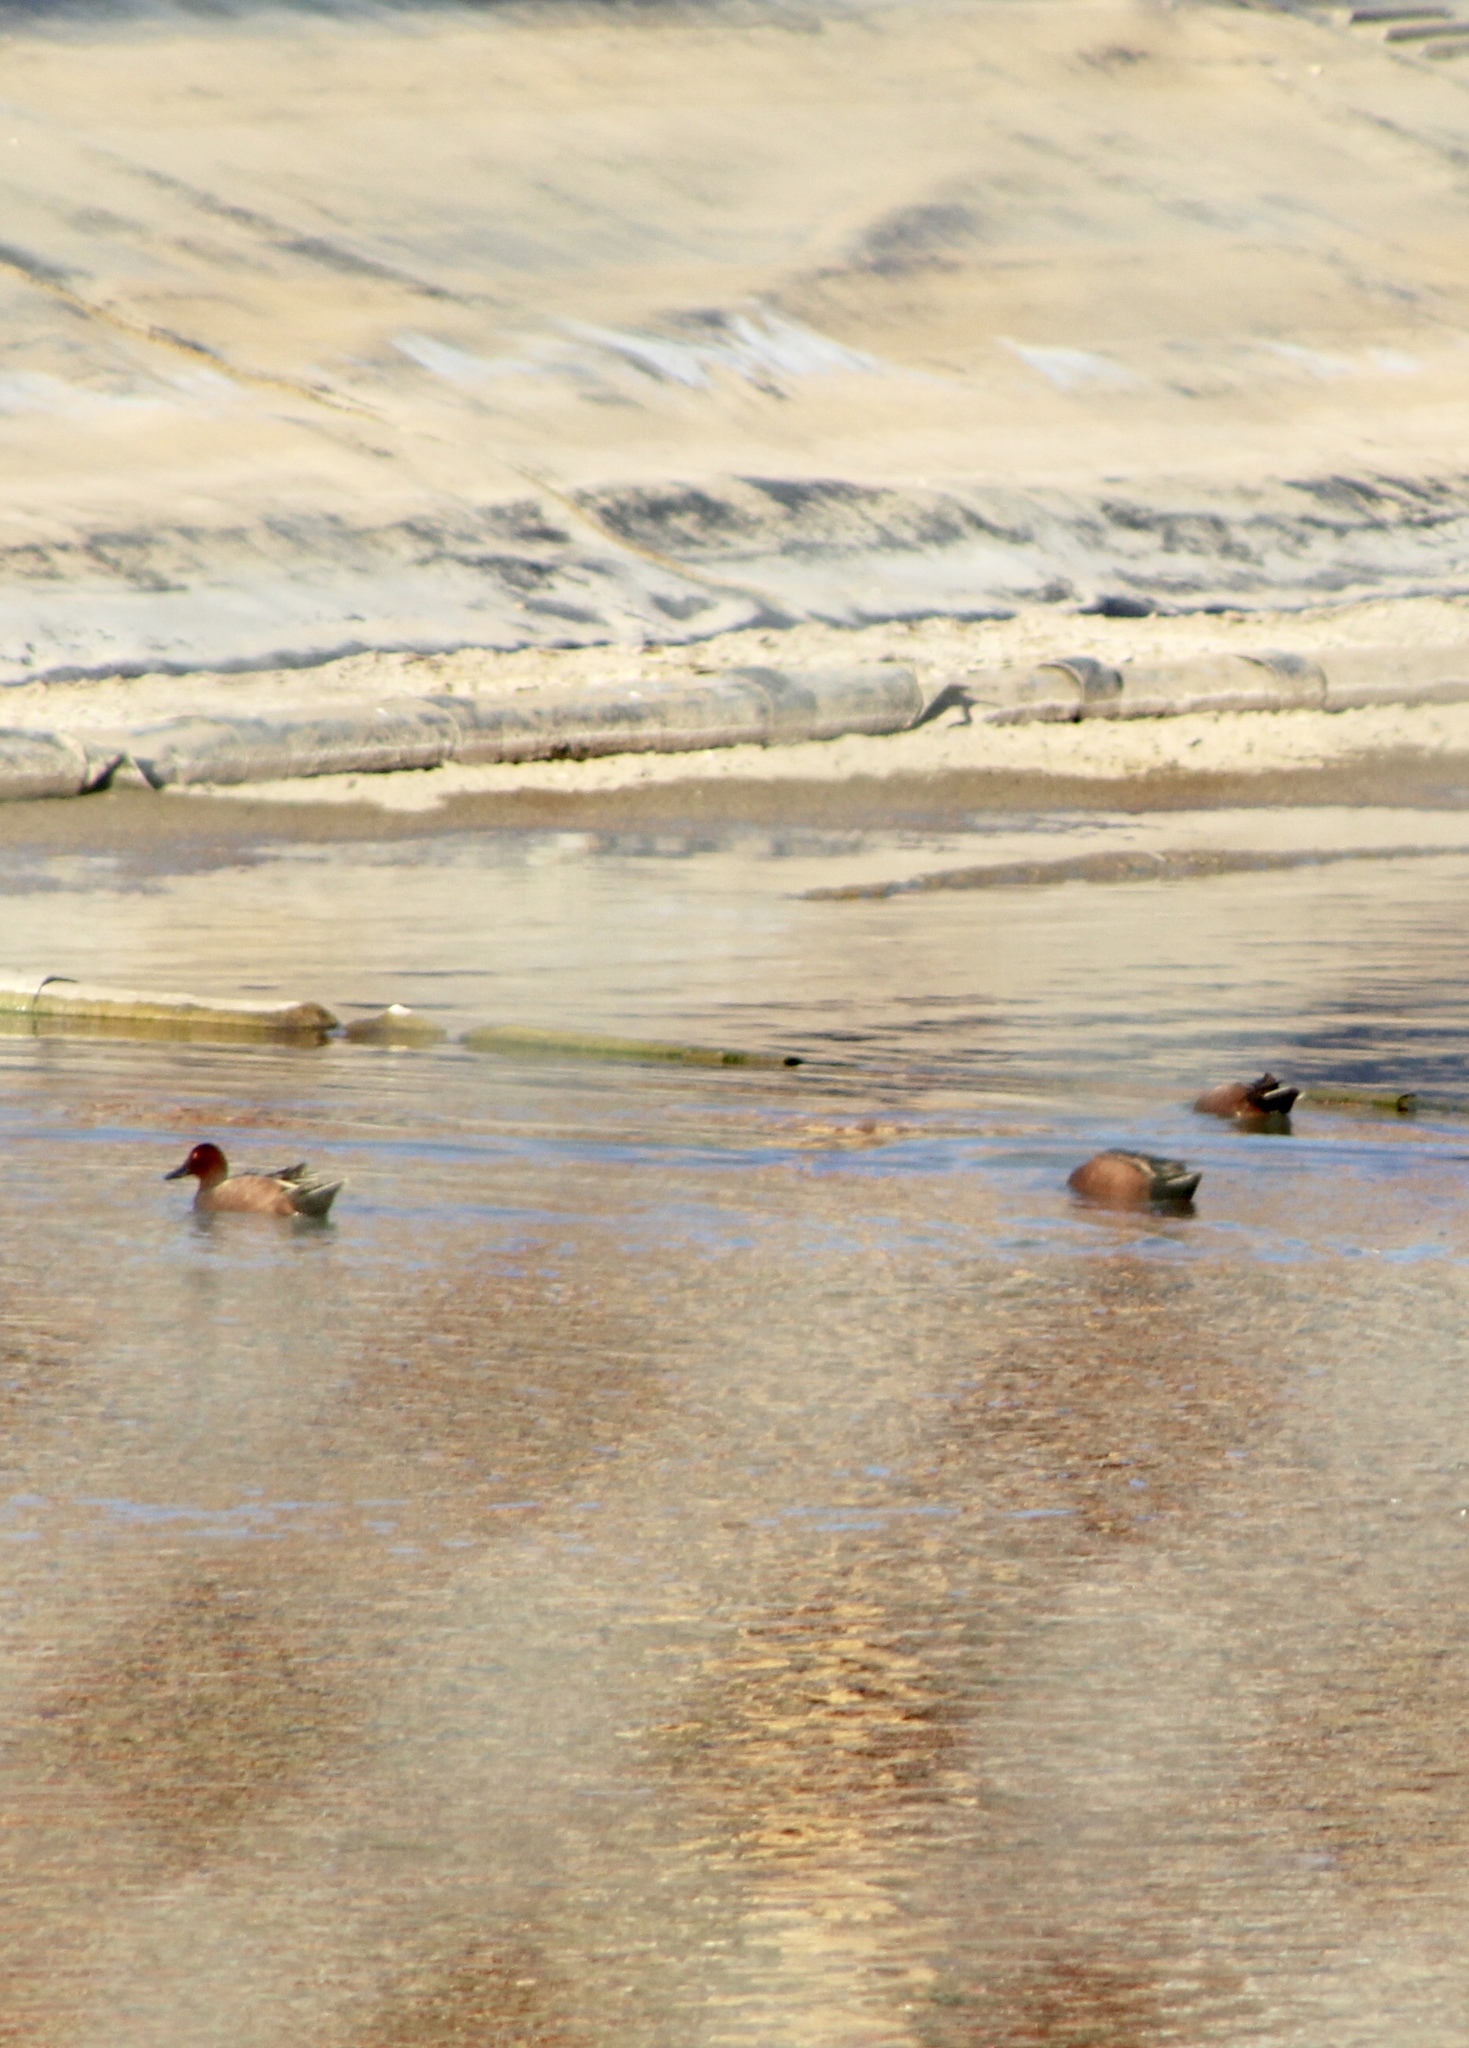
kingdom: Animalia
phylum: Chordata
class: Aves
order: Anseriformes
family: Anatidae
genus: Spatula
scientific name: Spatula cyanoptera
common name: Cinnamon teal
